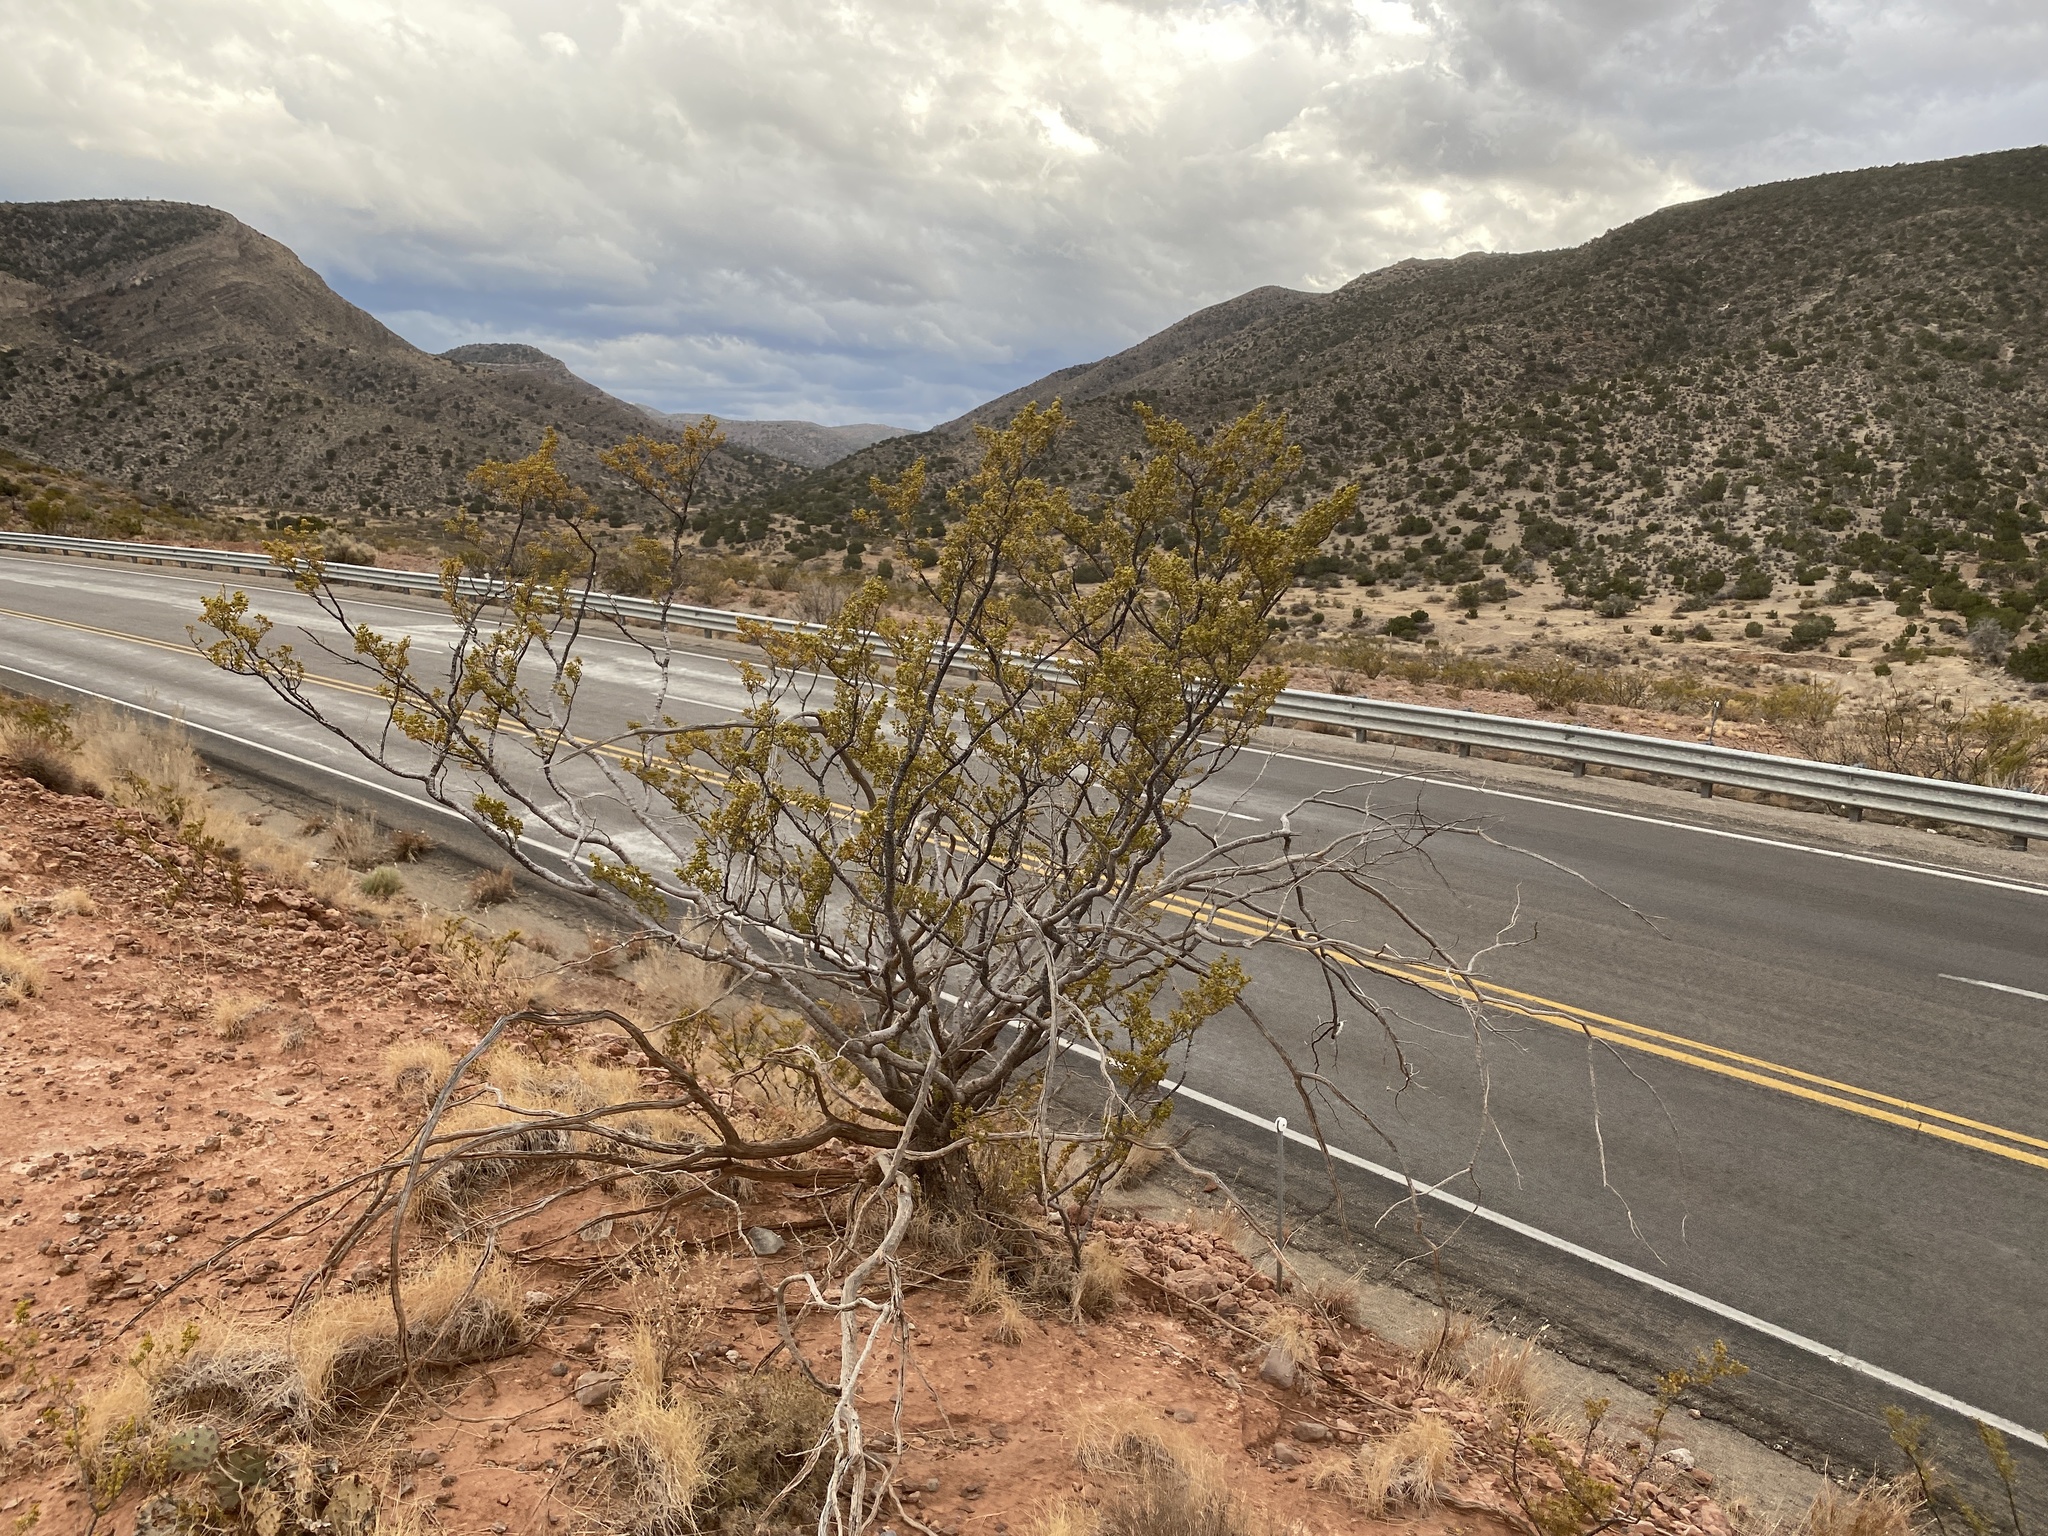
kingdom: Plantae
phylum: Tracheophyta
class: Magnoliopsida
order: Zygophyllales
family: Zygophyllaceae
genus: Larrea
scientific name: Larrea tridentata
